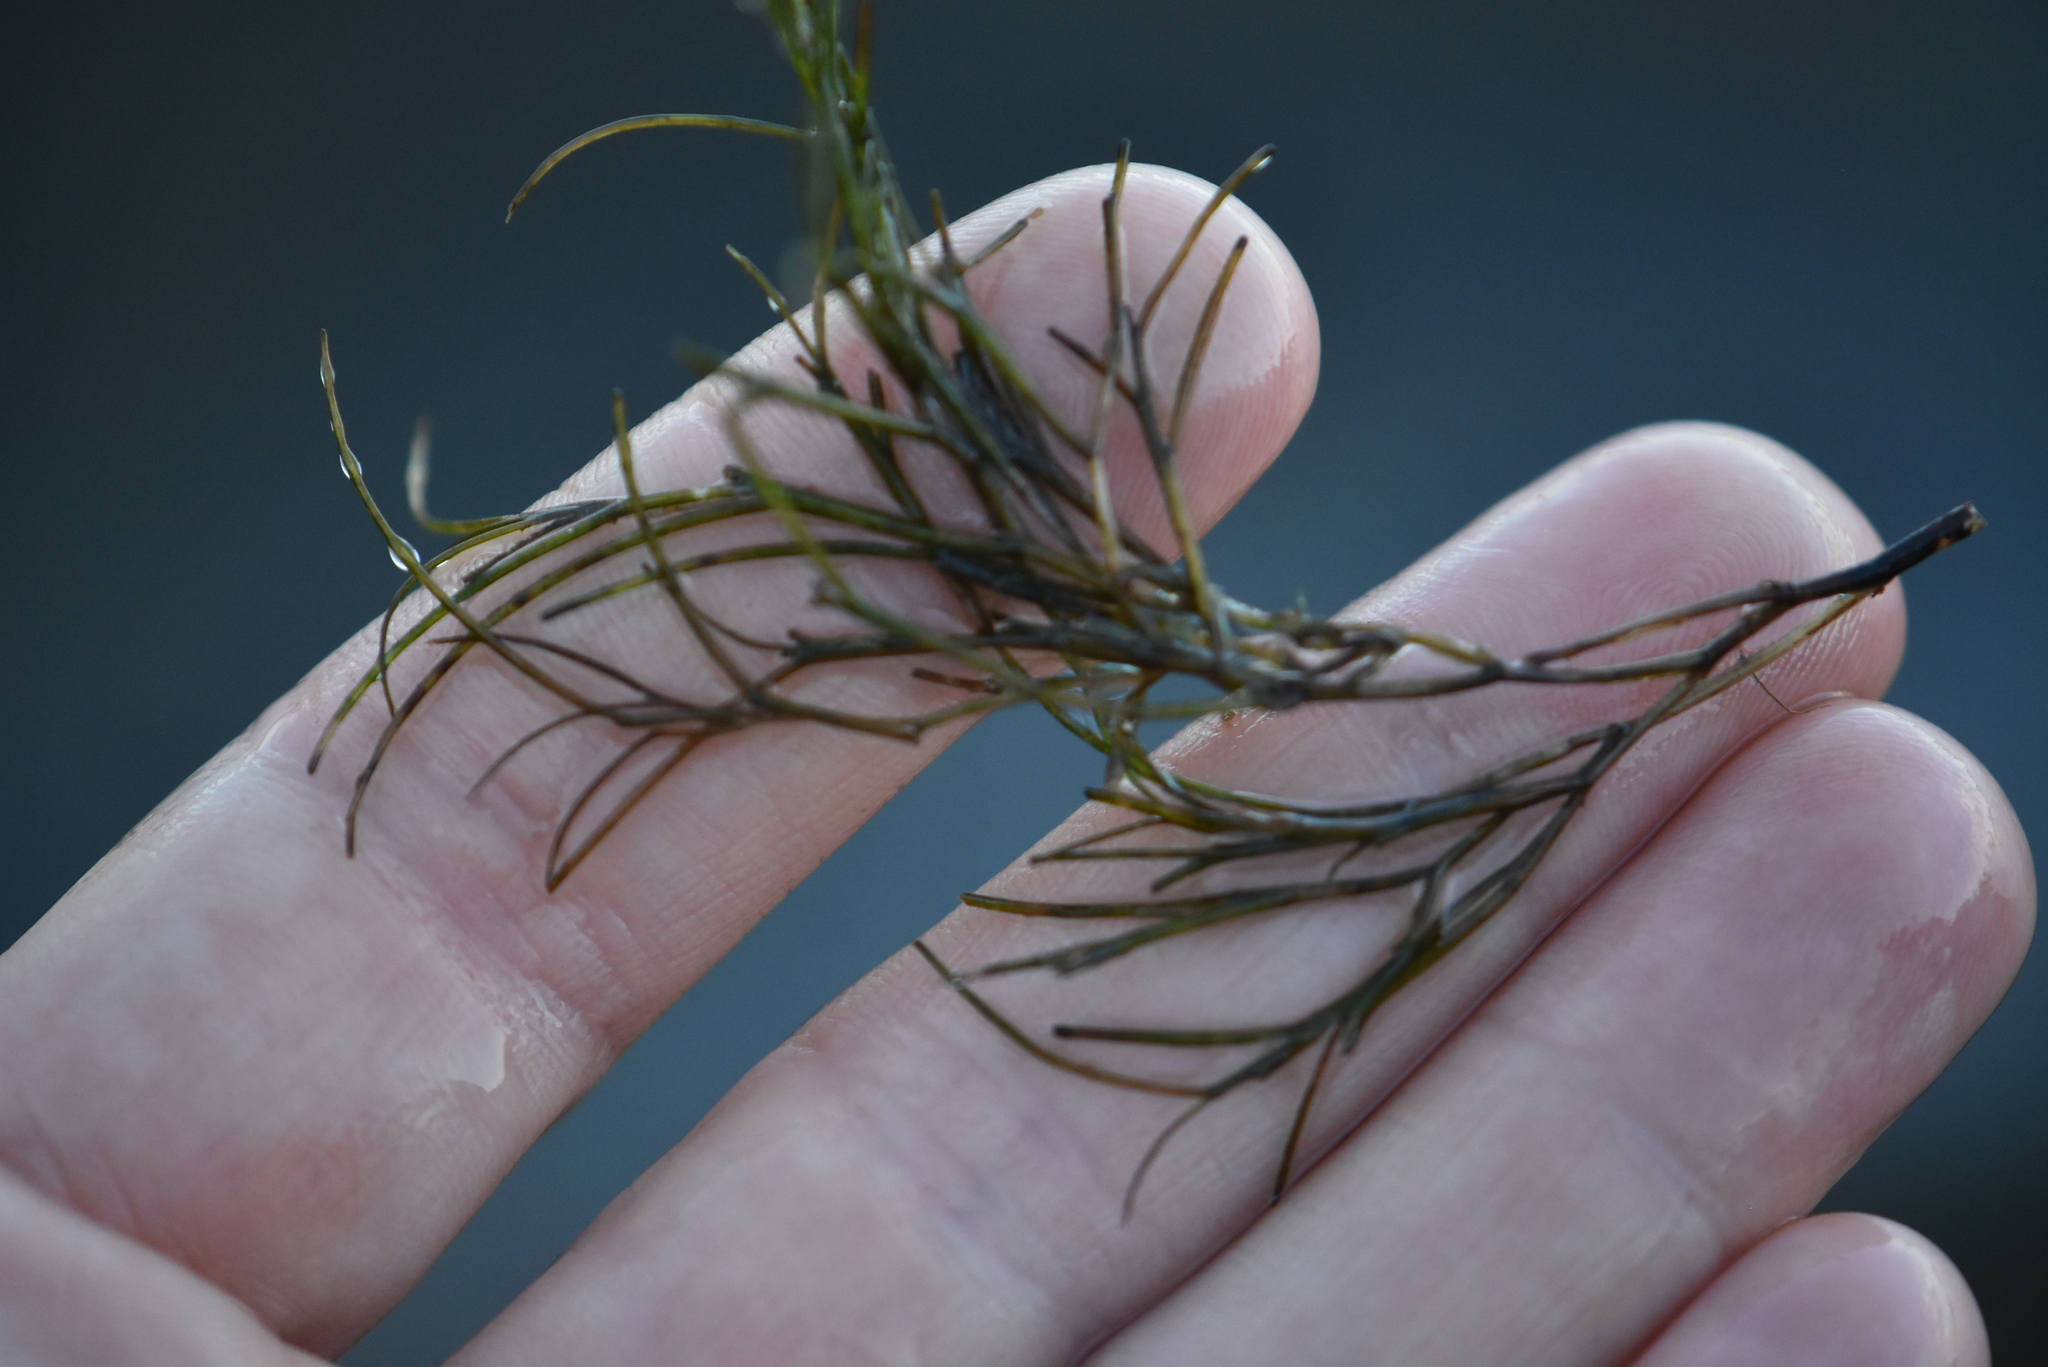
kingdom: Plantae
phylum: Tracheophyta
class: Liliopsida
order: Alismatales
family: Potamogetonaceae
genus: Stuckenia
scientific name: Stuckenia pectinata
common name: Sago pondweed
